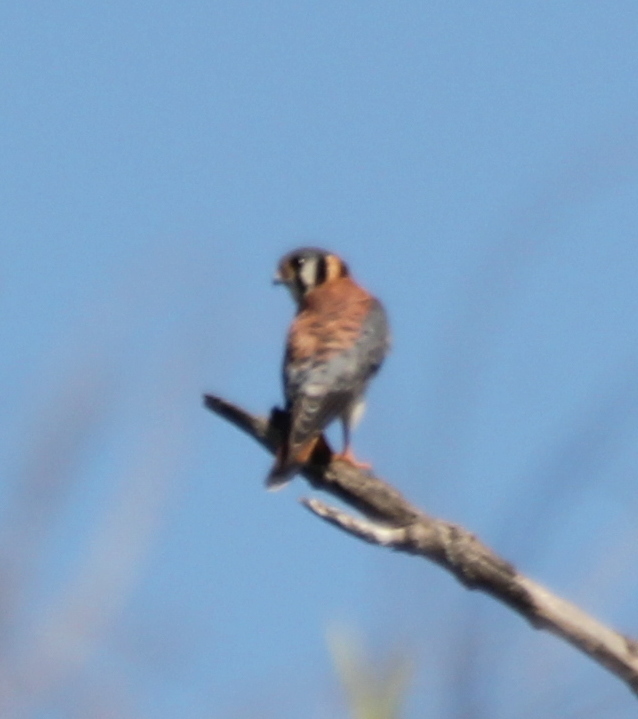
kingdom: Animalia
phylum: Chordata
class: Aves
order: Falconiformes
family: Falconidae
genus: Falco
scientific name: Falco sparverius
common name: American kestrel
